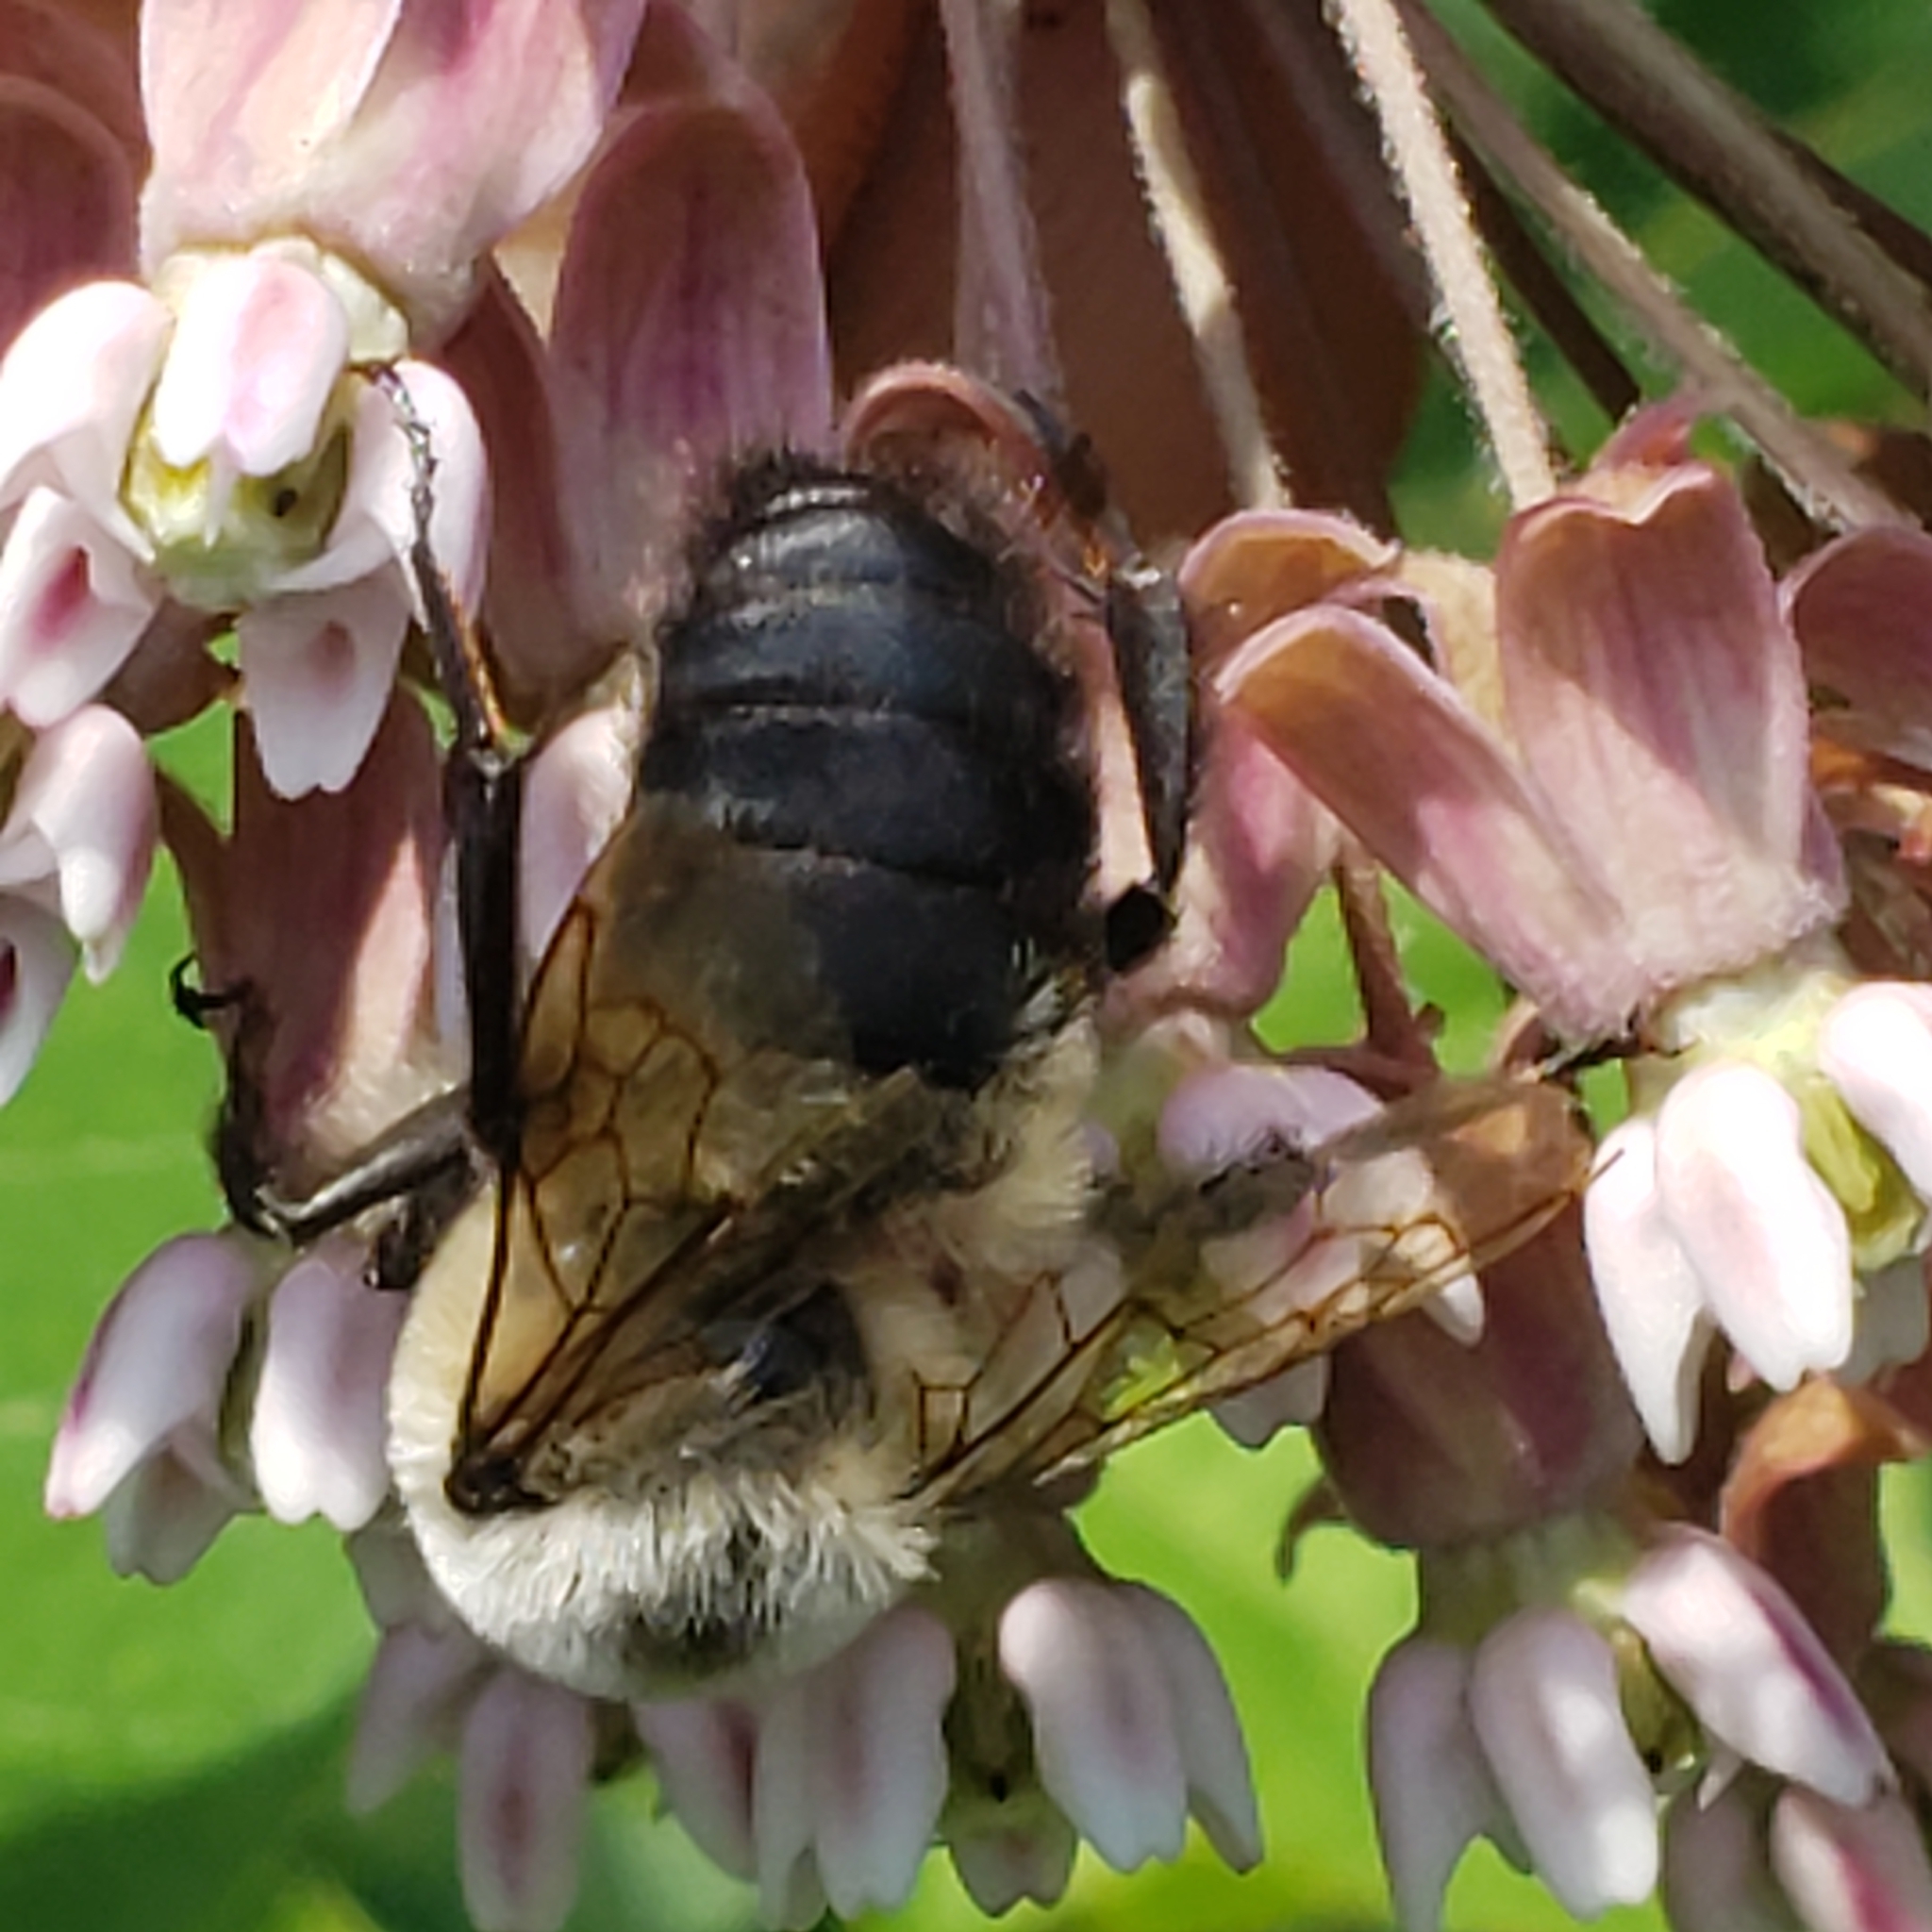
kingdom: Animalia
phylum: Arthropoda
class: Insecta
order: Hymenoptera
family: Apidae
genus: Bombus
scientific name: Bombus griseocollis
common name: Brown-belted bumble bee
